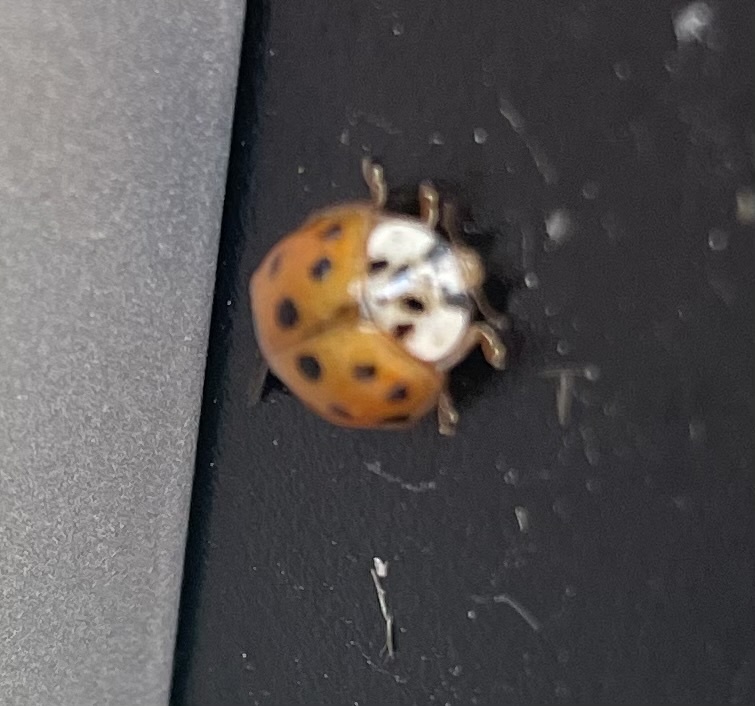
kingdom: Animalia
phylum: Arthropoda
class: Insecta
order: Coleoptera
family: Coccinellidae
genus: Harmonia
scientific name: Harmonia axyridis
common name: Harlequin ladybird
